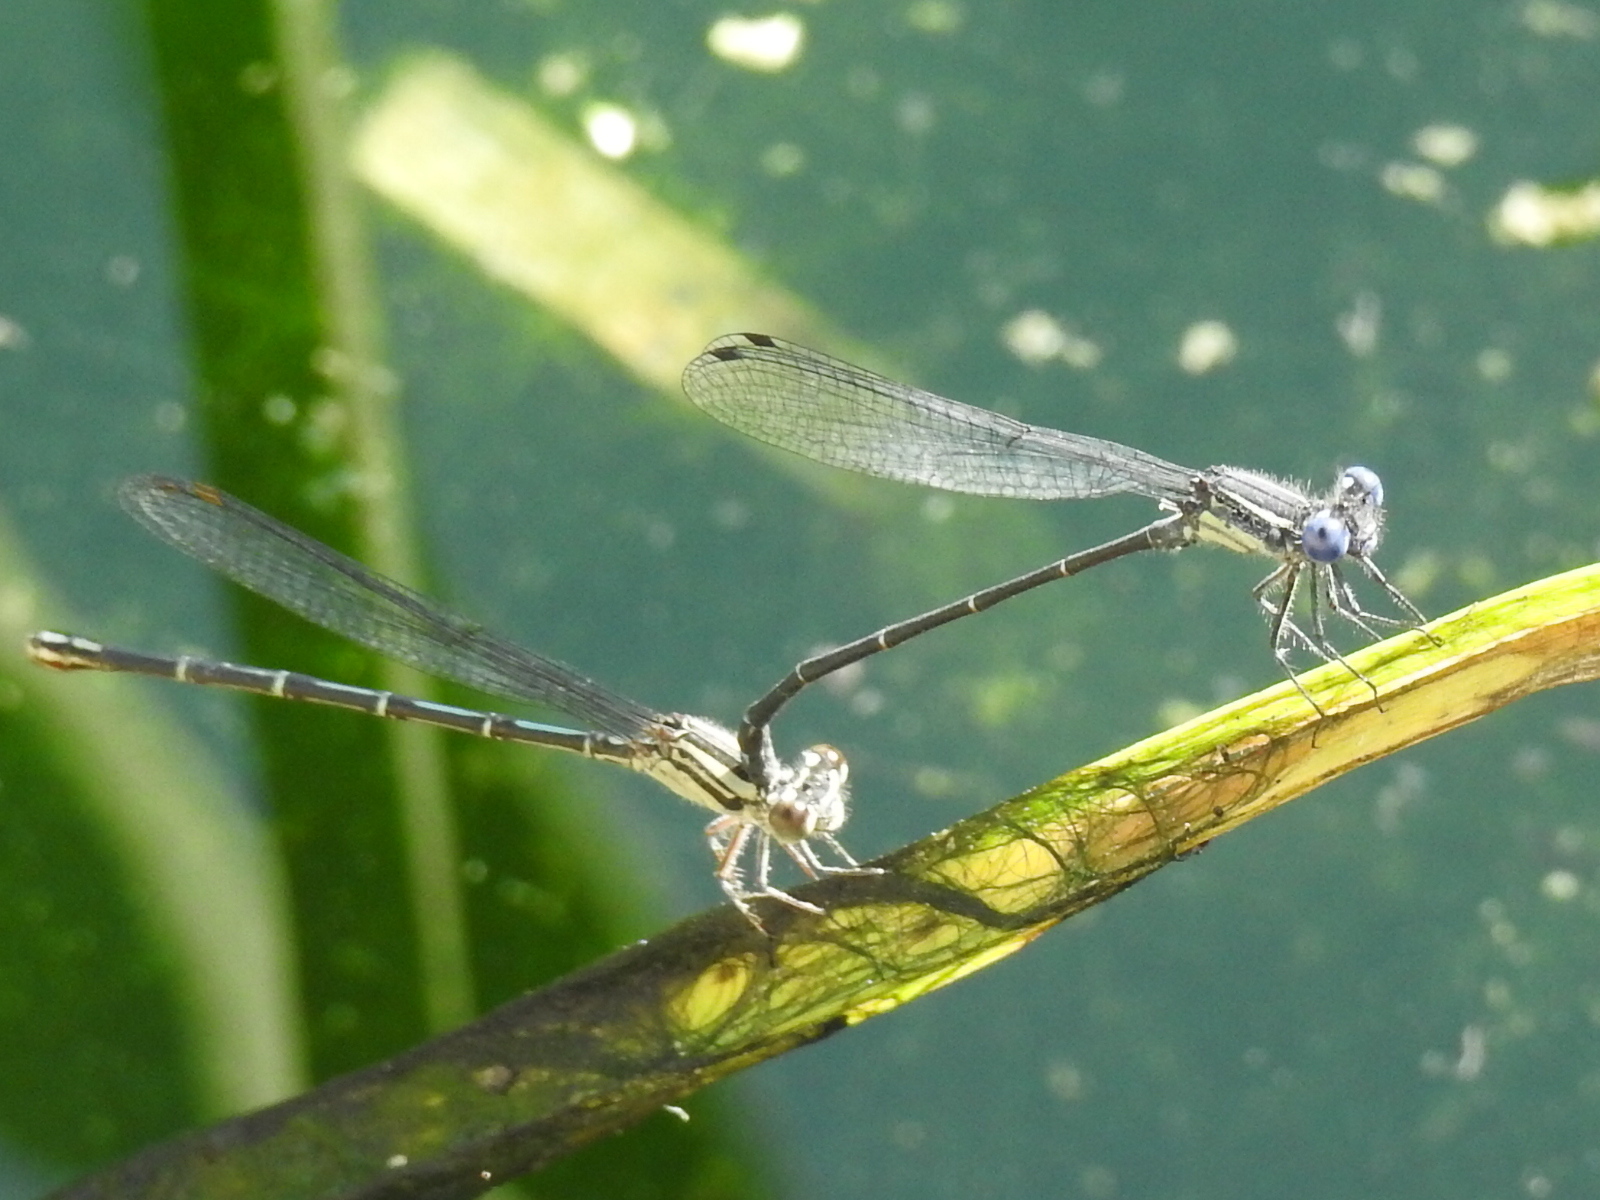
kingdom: Animalia
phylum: Arthropoda
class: Insecta
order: Odonata
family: Coenagrionidae
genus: Argia
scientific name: Argia translata
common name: Dusky dancer
